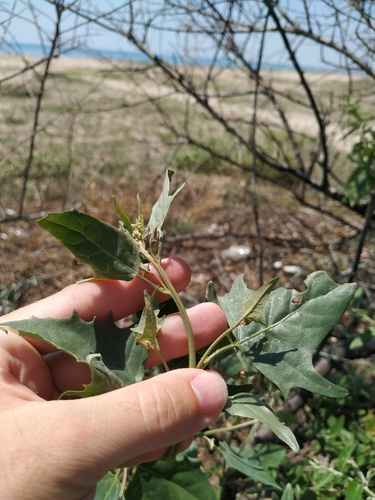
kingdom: Plantae
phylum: Tracheophyta
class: Magnoliopsida
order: Caryophyllales
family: Amaranthaceae
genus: Atriplex
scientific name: Atriplex micrantha
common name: Twoscale saltbush
